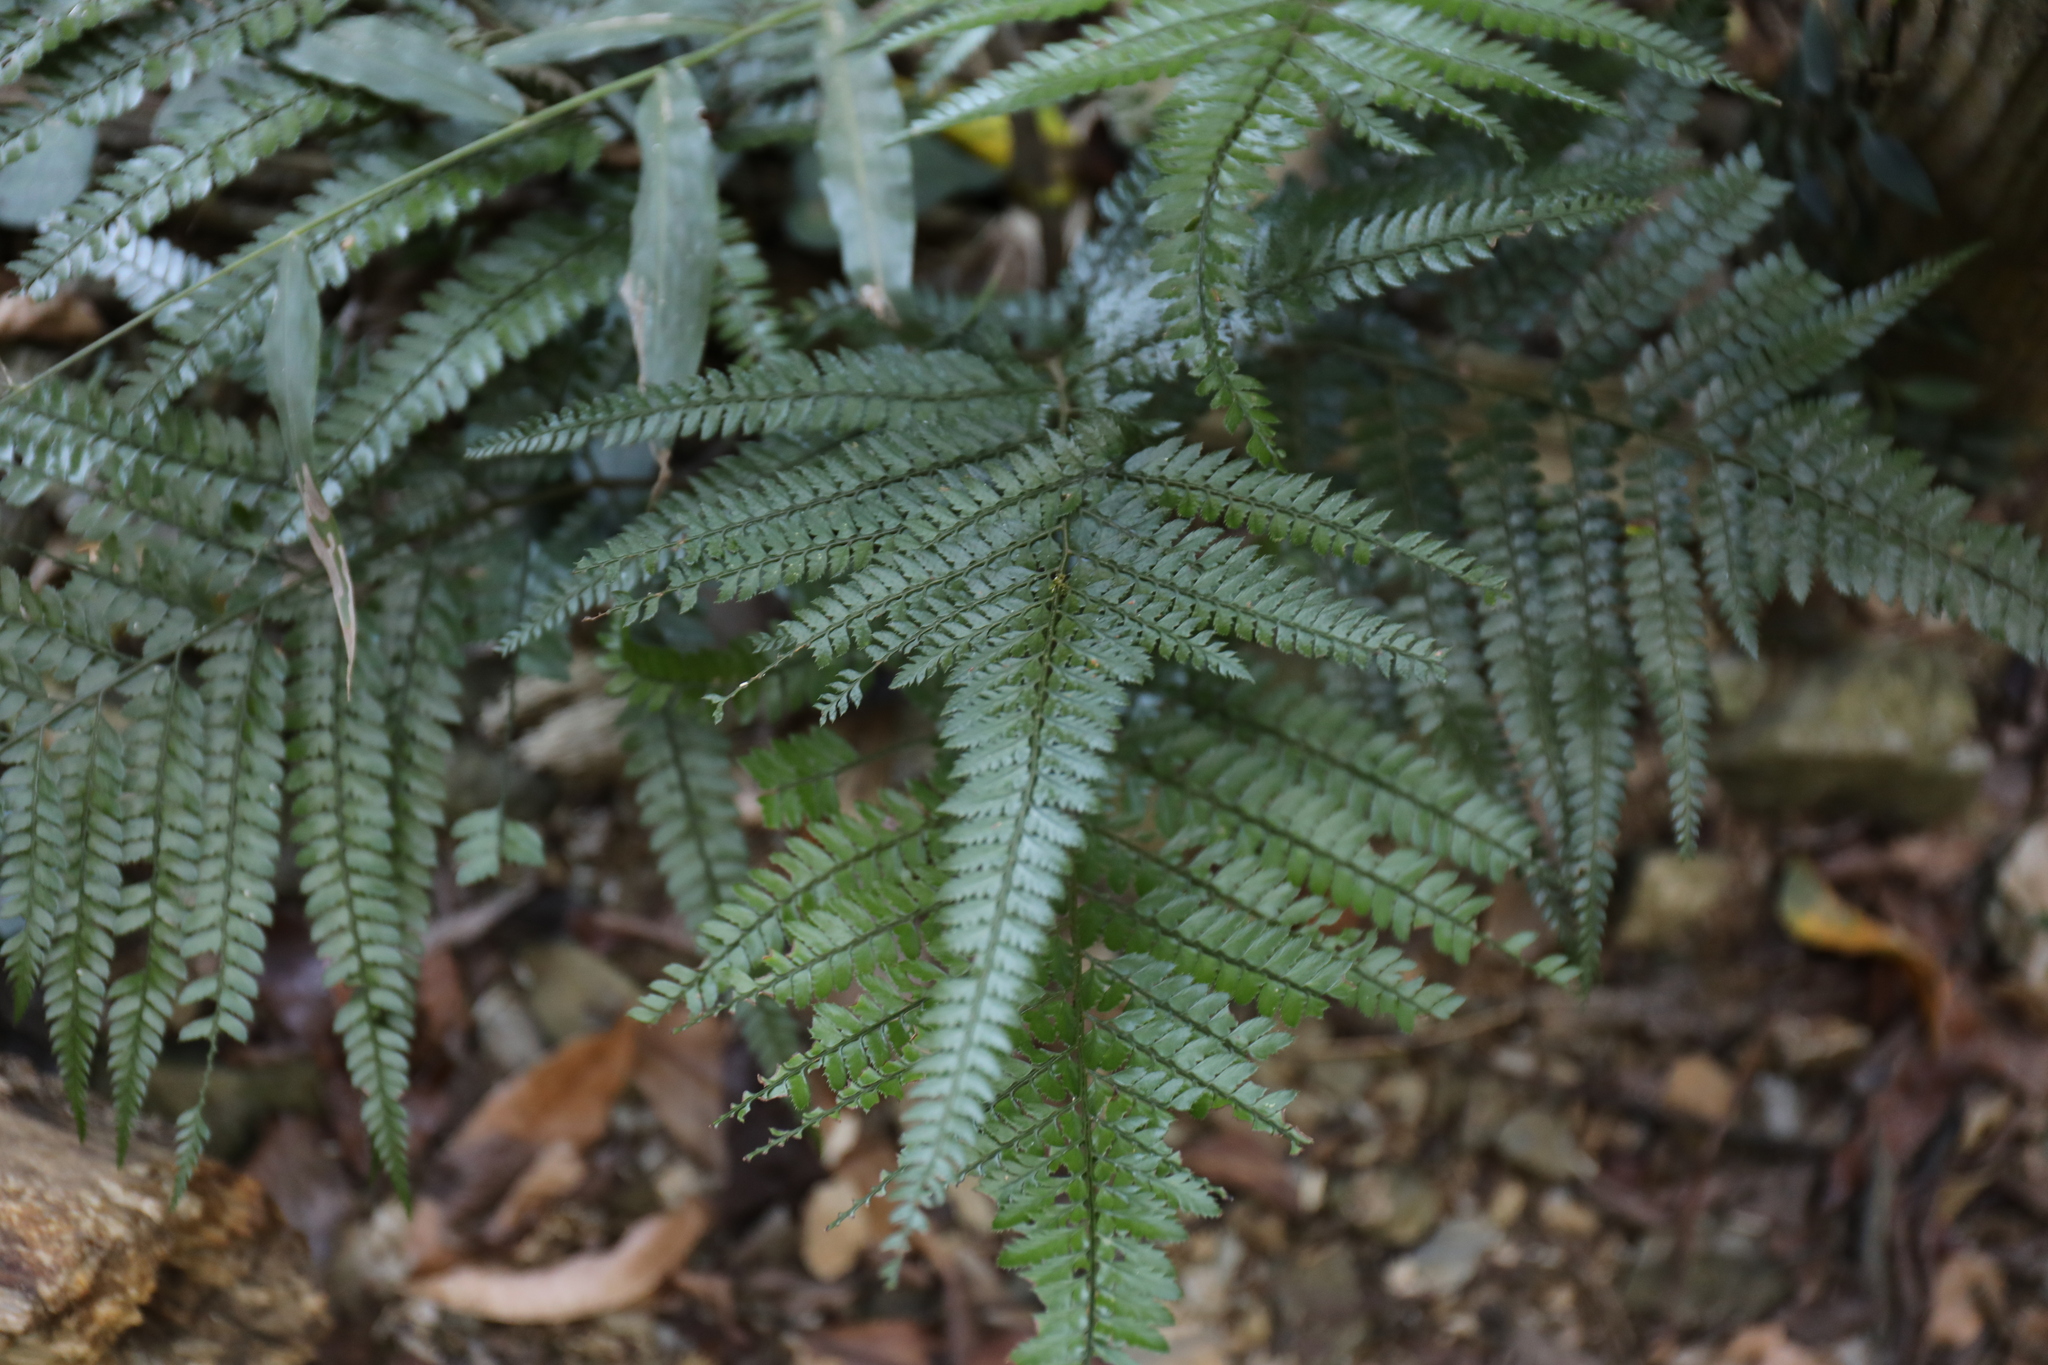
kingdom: Plantae
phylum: Tracheophyta
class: Polypodiopsida
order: Polypodiales
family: Dryopteridaceae
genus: Arachniodes
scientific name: Arachniodes aristata
